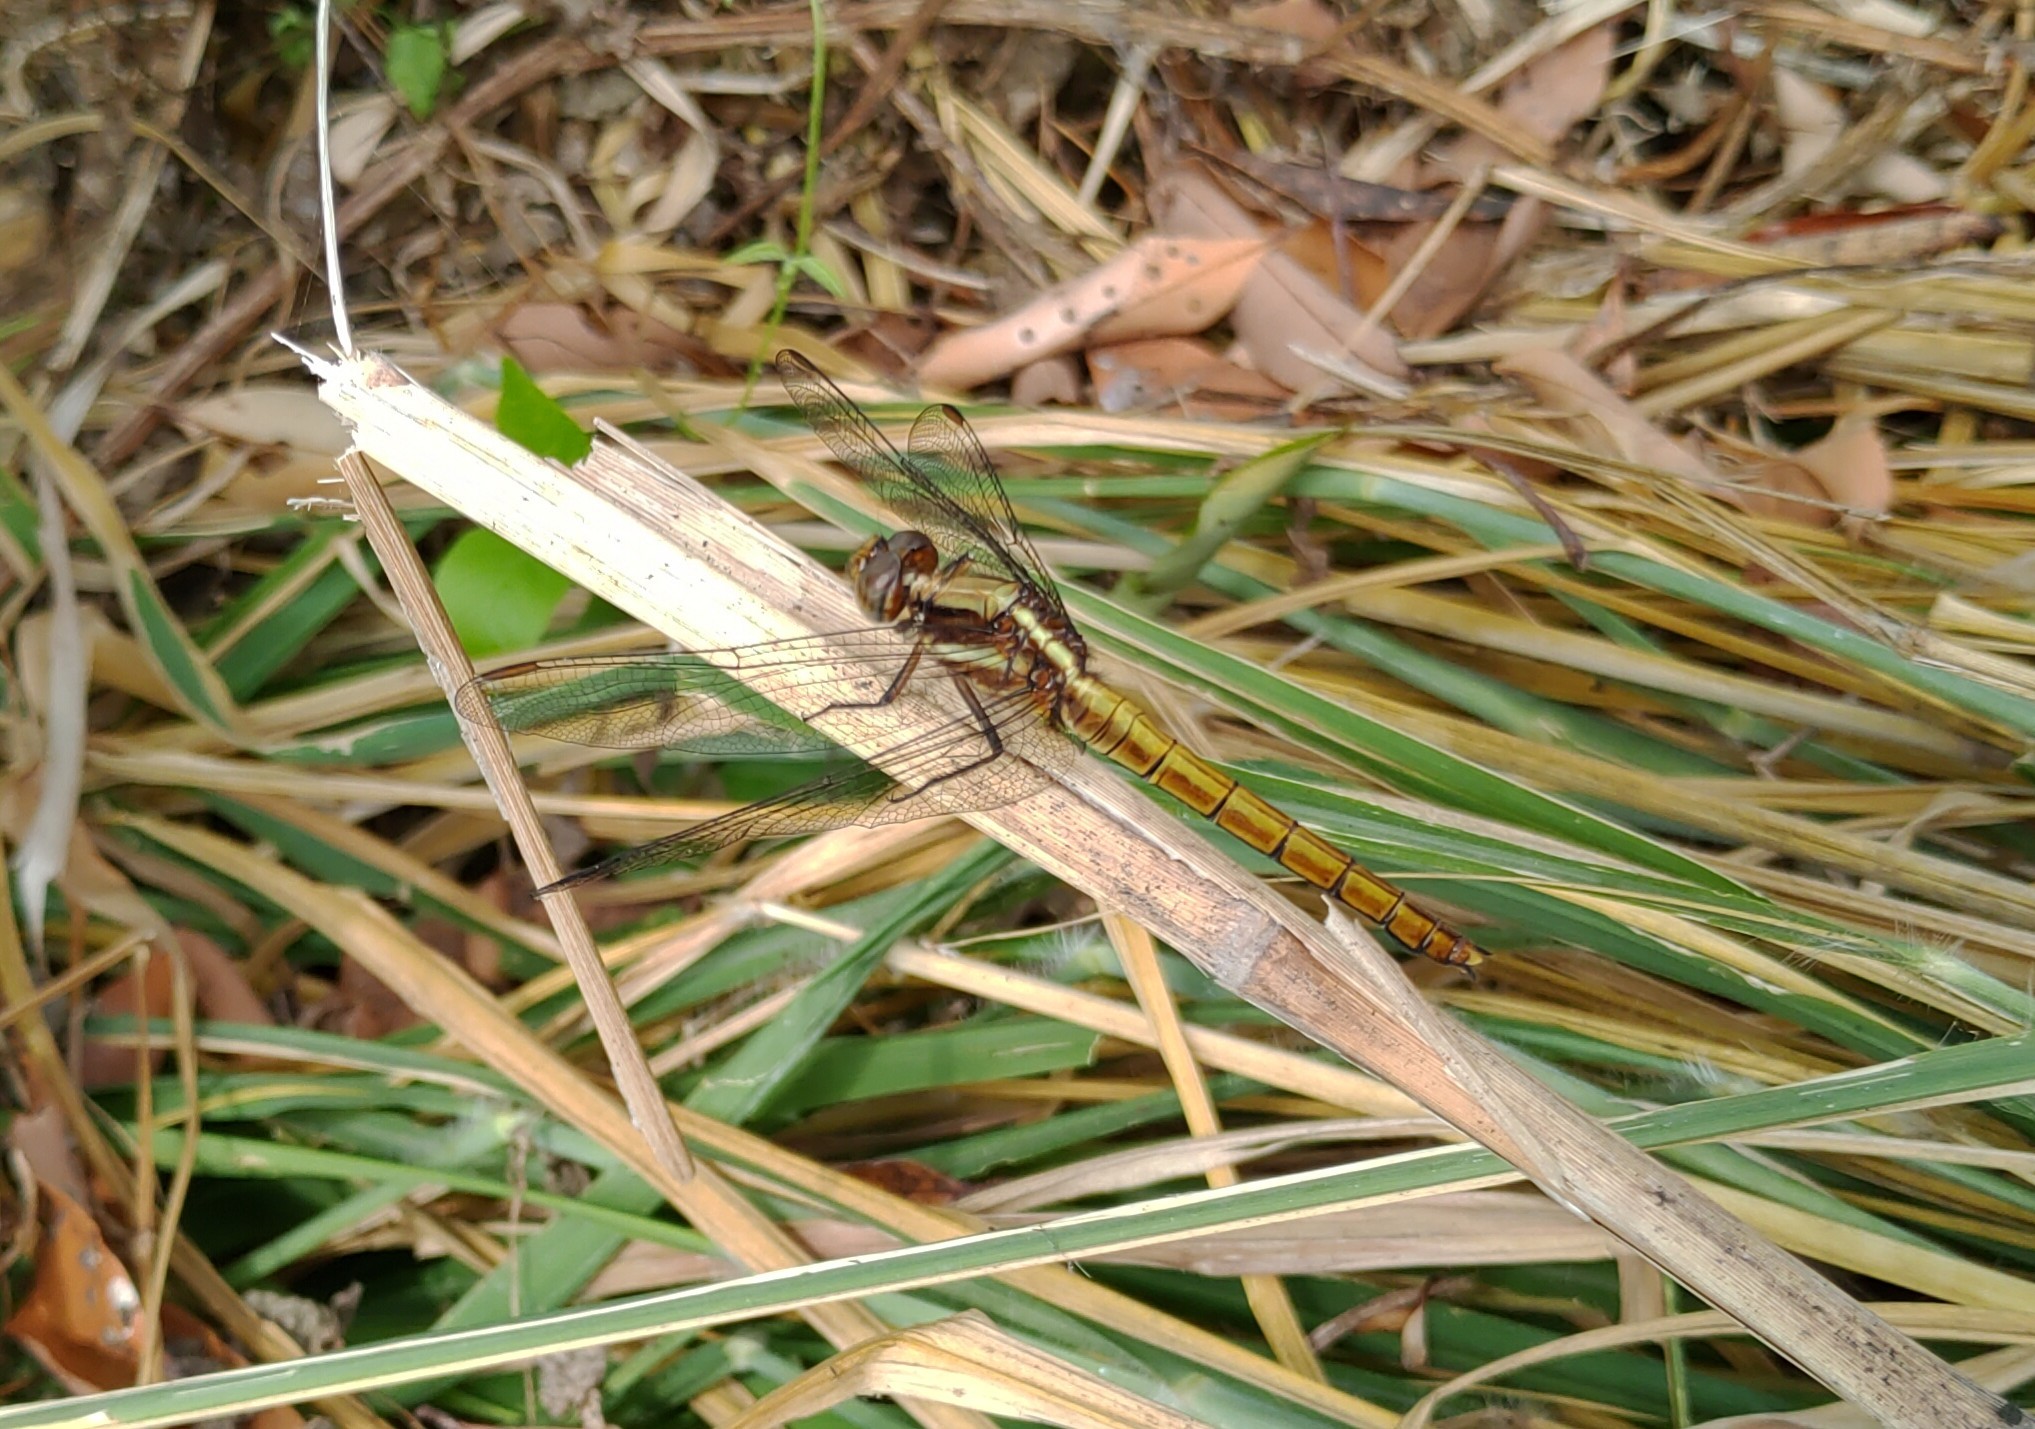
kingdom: Animalia
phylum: Arthropoda
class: Insecta
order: Odonata
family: Libellulidae
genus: Orthetrum
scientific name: Orthetrum glaucum
